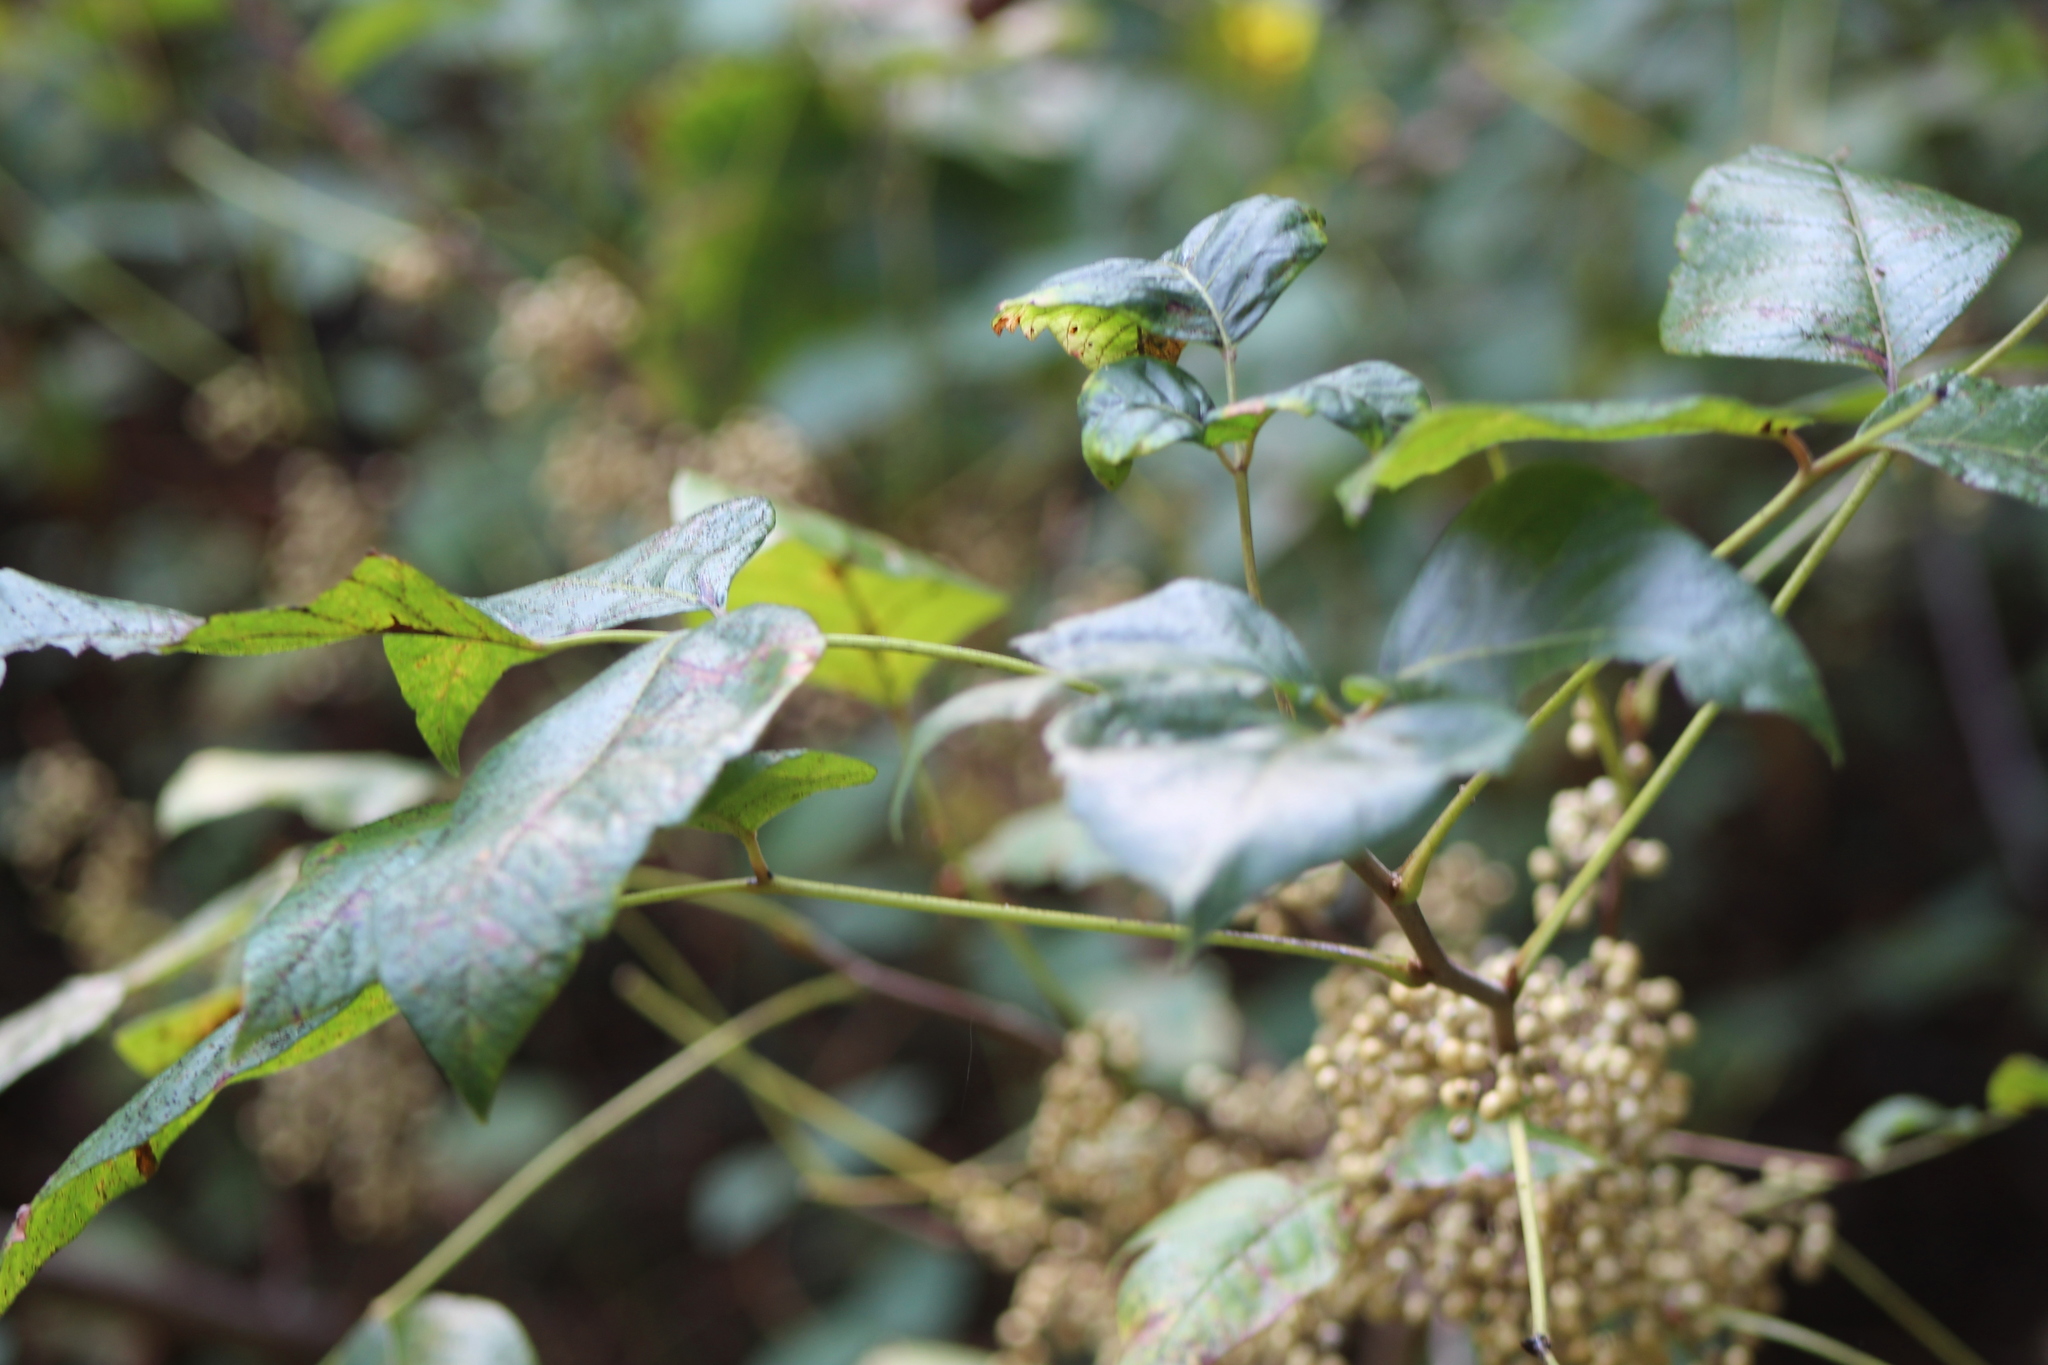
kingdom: Plantae
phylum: Tracheophyta
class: Magnoliopsida
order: Sapindales
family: Anacardiaceae
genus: Toxicodendron
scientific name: Toxicodendron radicans
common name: Poison ivy
